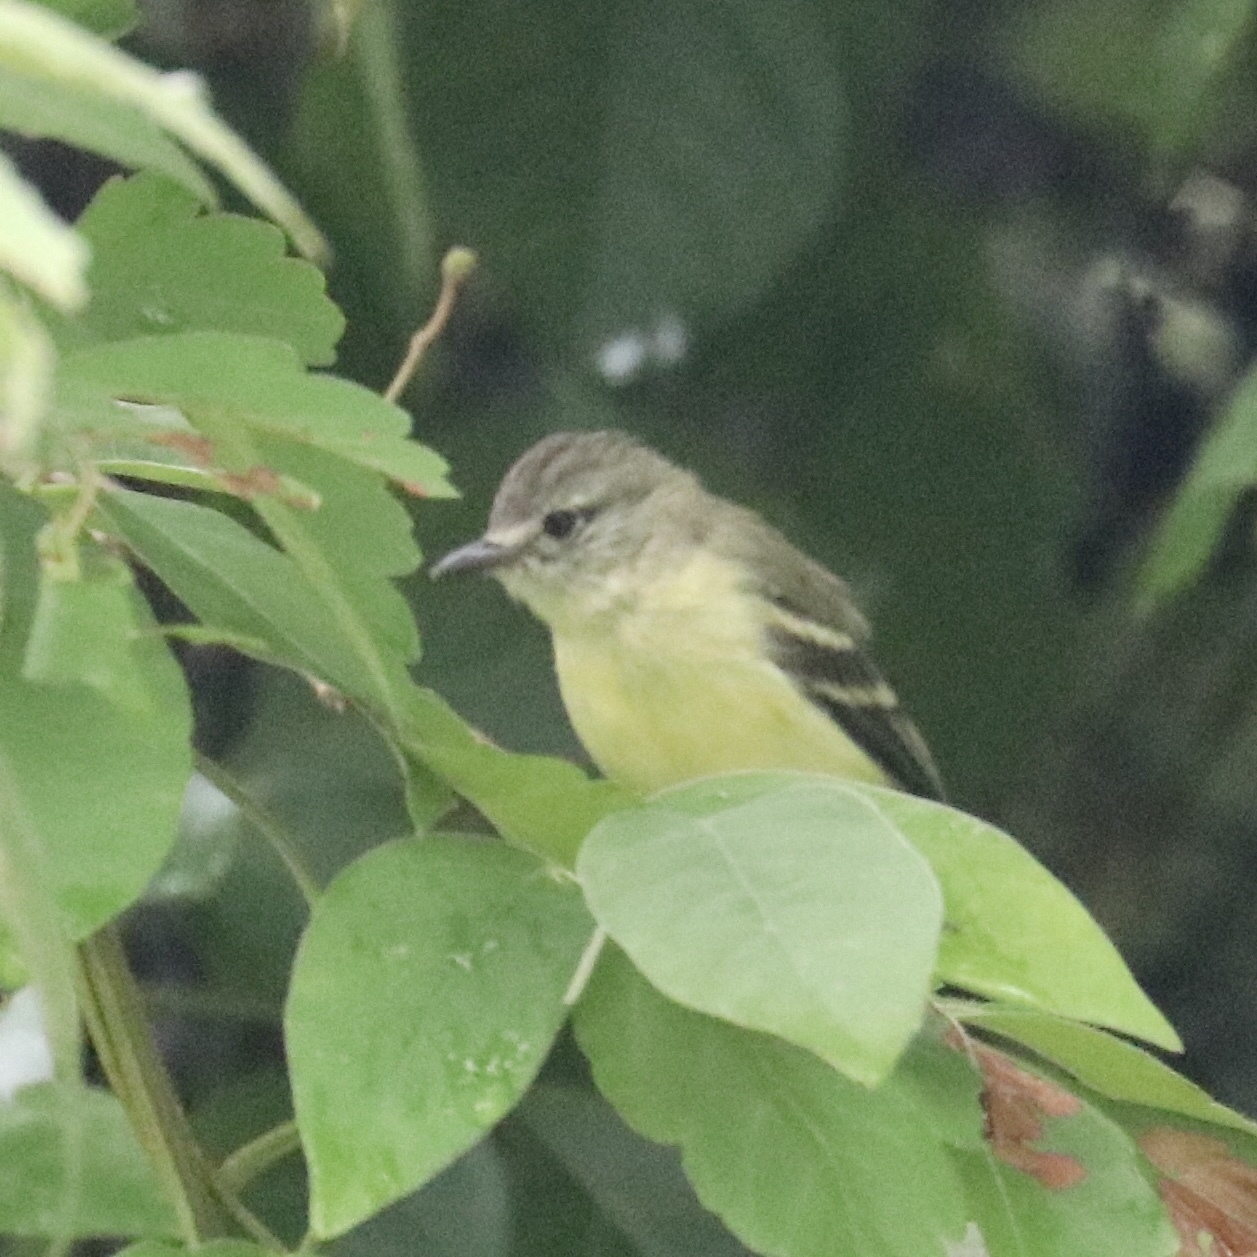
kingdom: Animalia
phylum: Chordata
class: Aves
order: Passeriformes
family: Tyrannidae
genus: Camptostoma
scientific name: Camptostoma obsoletum
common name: Southern beardless-tyrannulet
